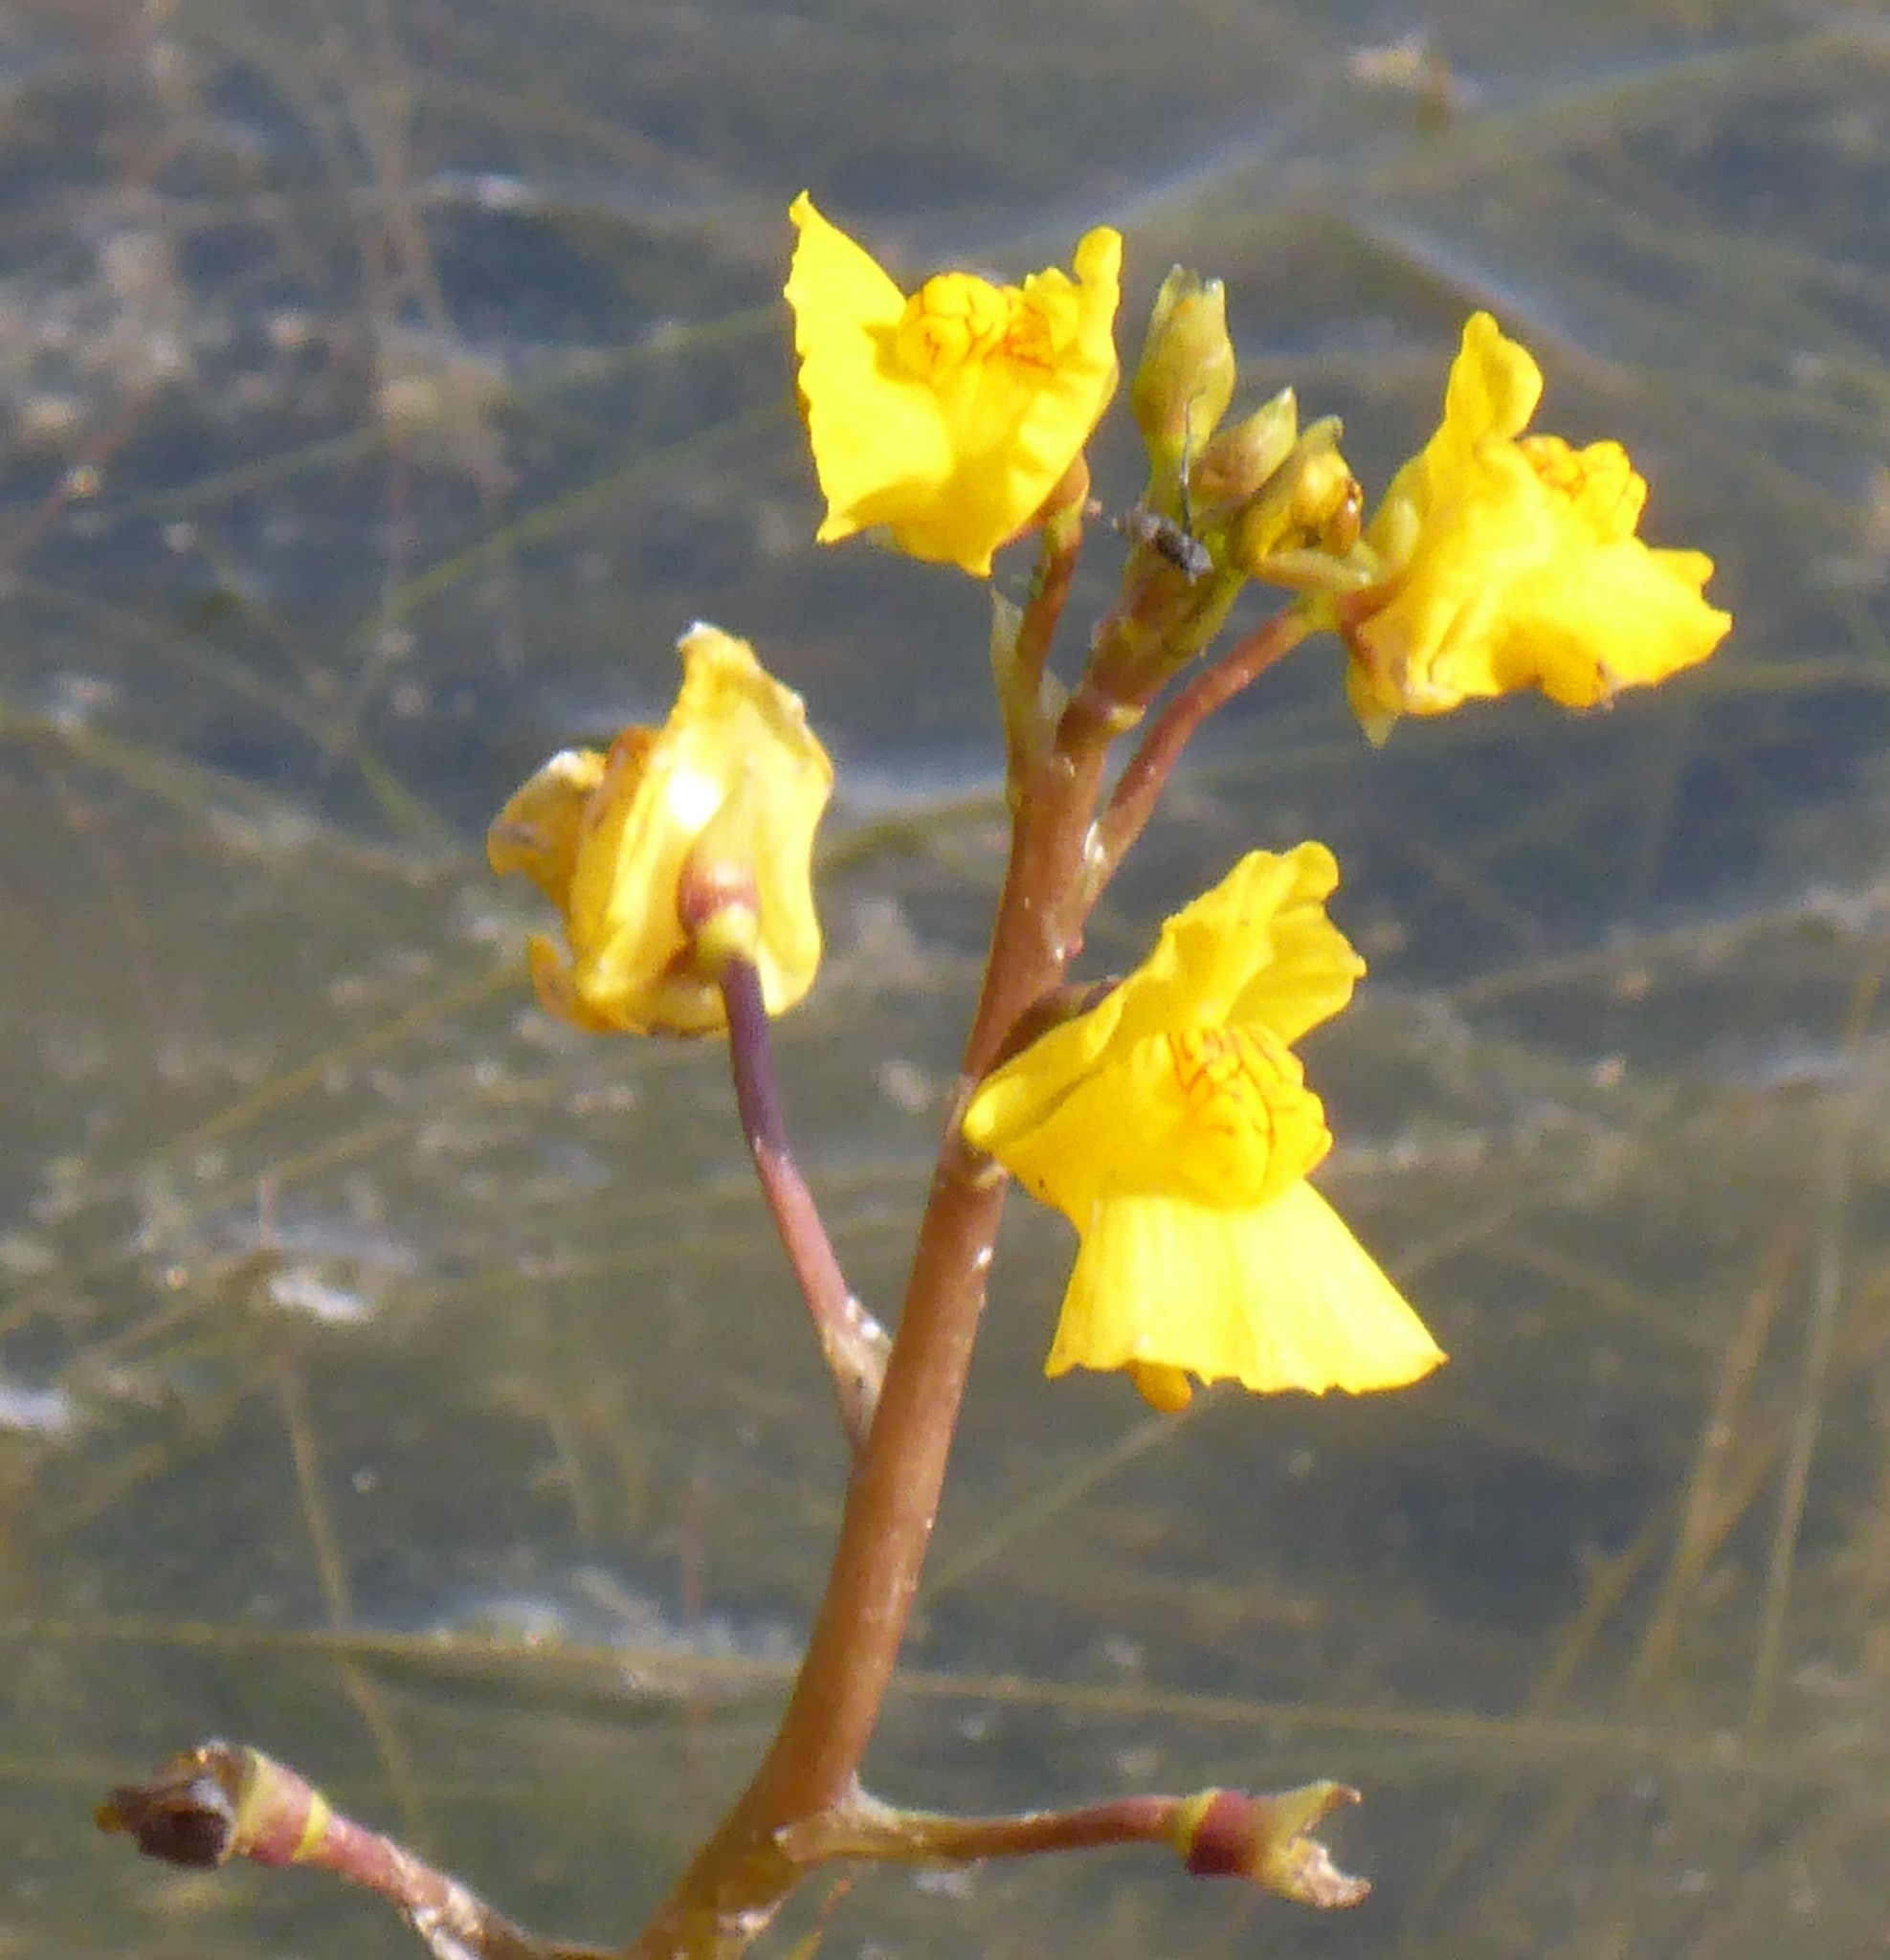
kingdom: Plantae
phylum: Tracheophyta
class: Magnoliopsida
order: Lamiales
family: Lentibulariaceae
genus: Utricularia
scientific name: Utricularia macrorhiza
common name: Common bladderwort
